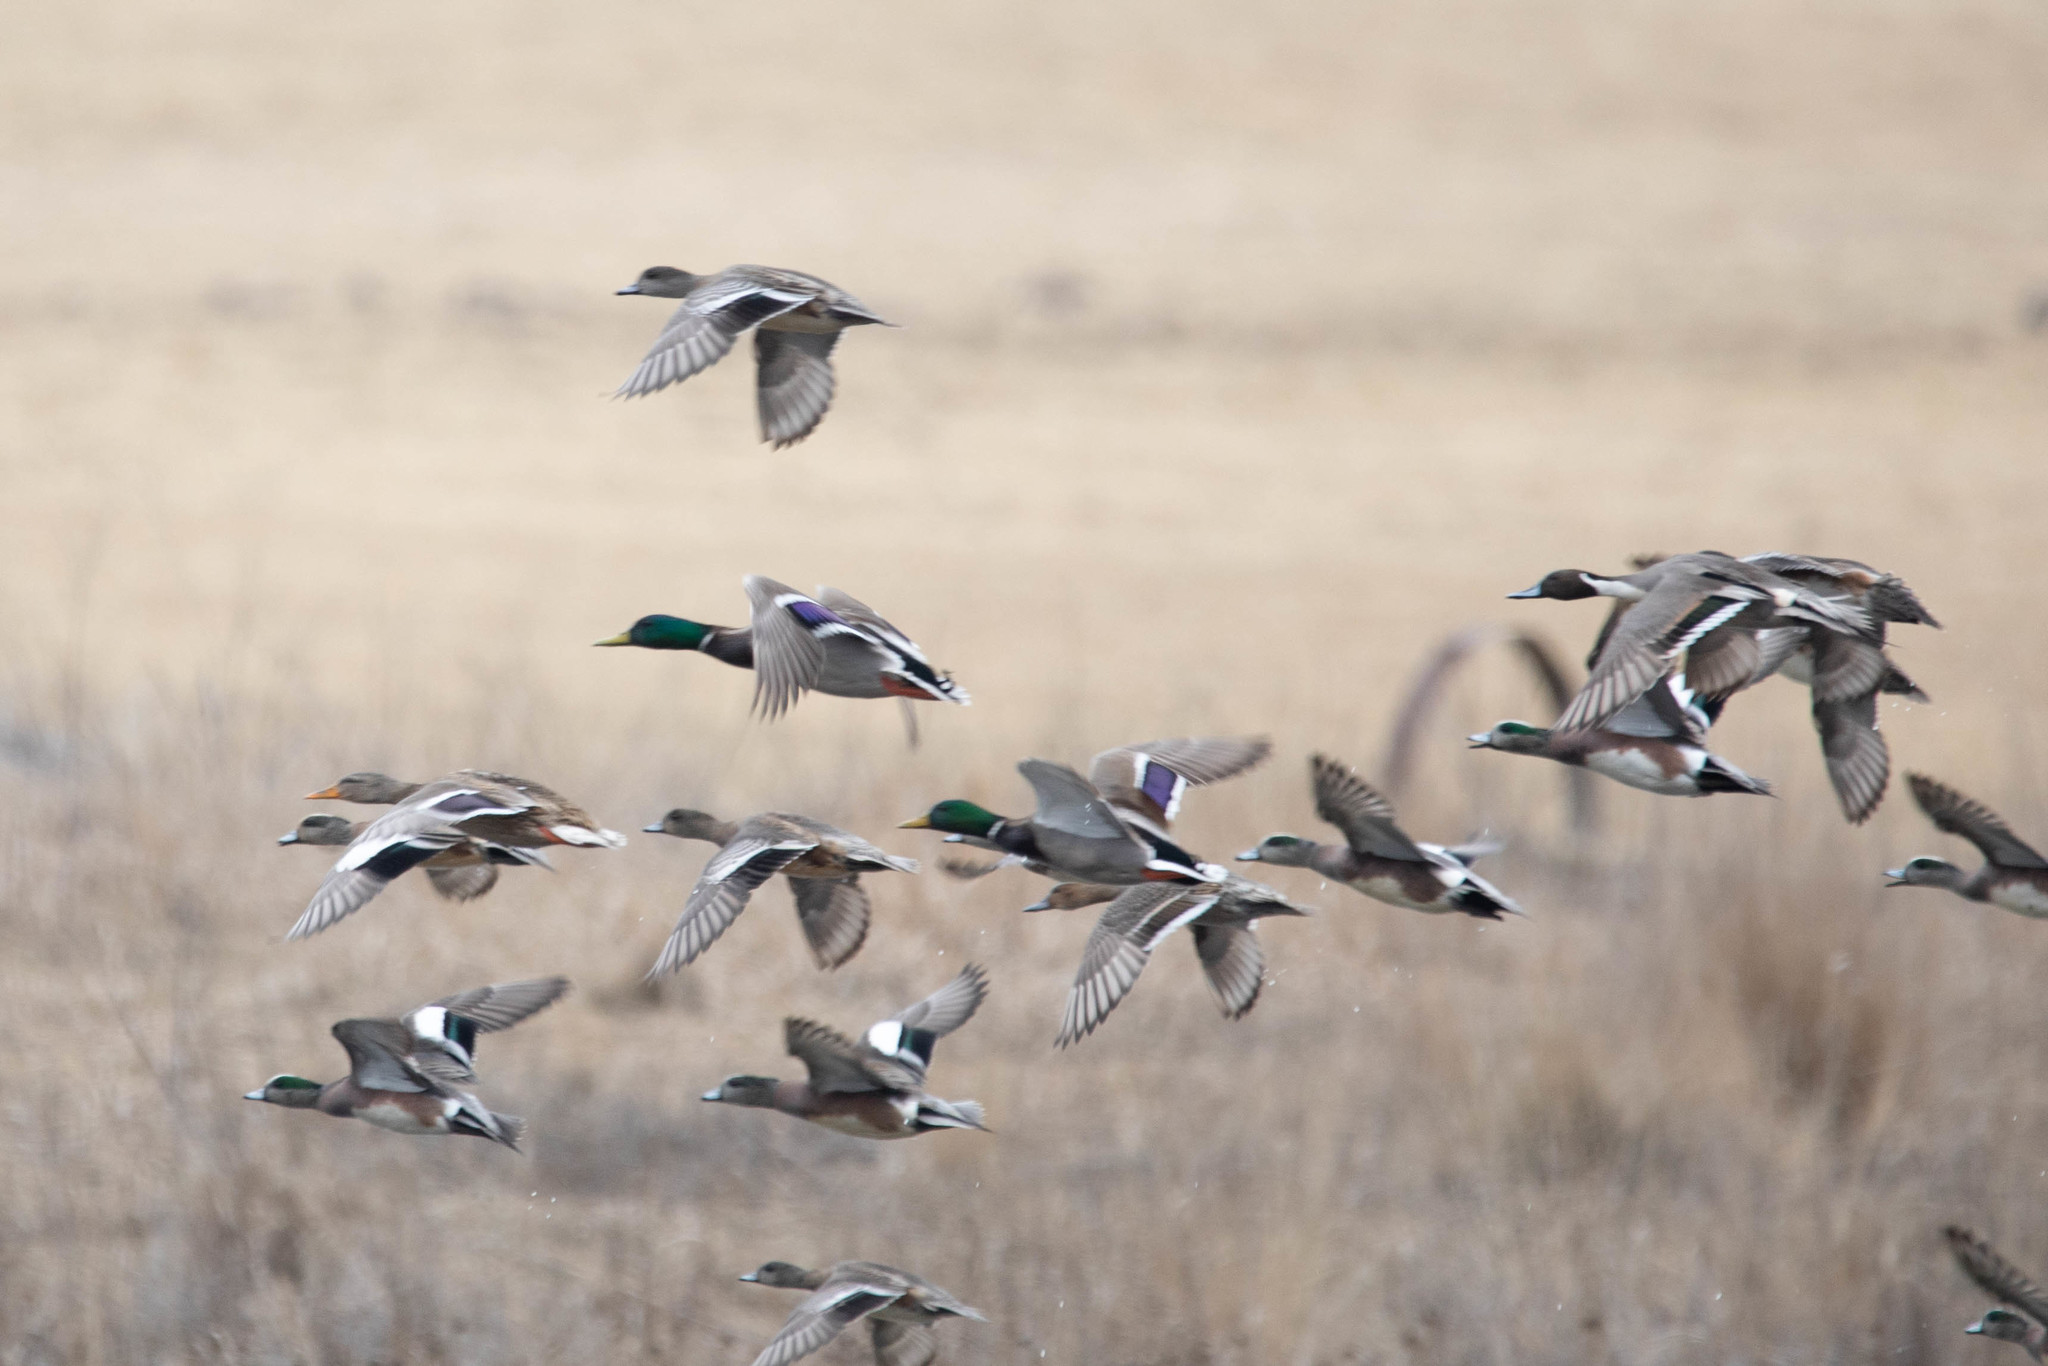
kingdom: Animalia
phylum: Chordata
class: Aves
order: Anseriformes
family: Anatidae
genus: Mareca
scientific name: Mareca americana
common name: American wigeon
